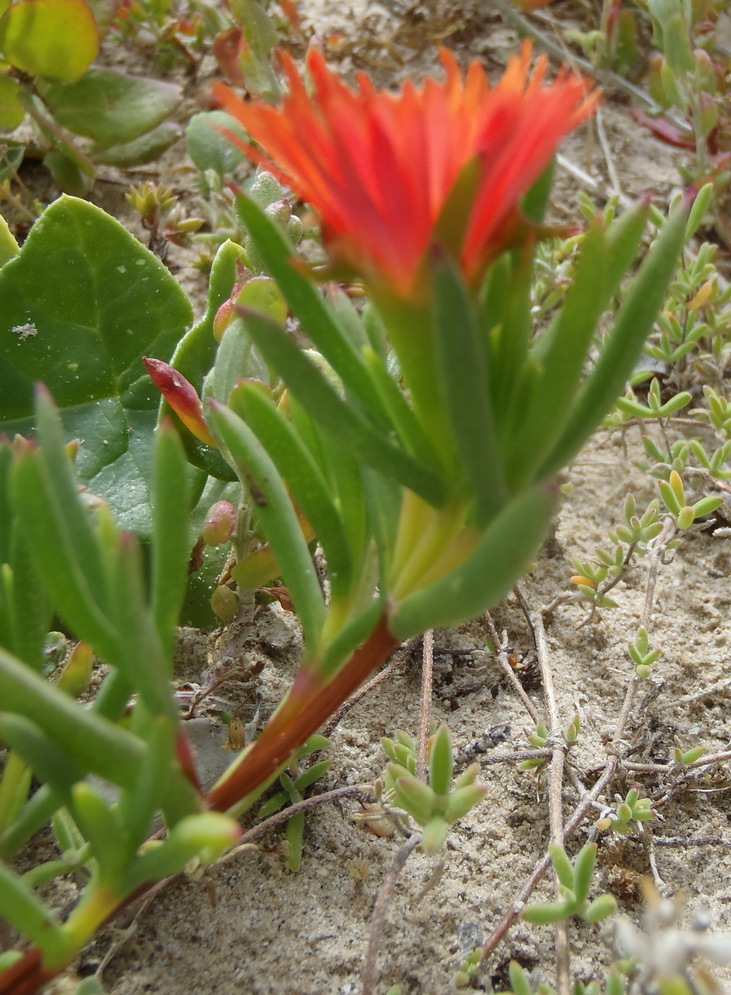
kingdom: Plantae
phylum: Tracheophyta
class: Magnoliopsida
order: Caryophyllales
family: Aizoaceae
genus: Lampranthus
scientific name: Lampranthus fergusoniae
